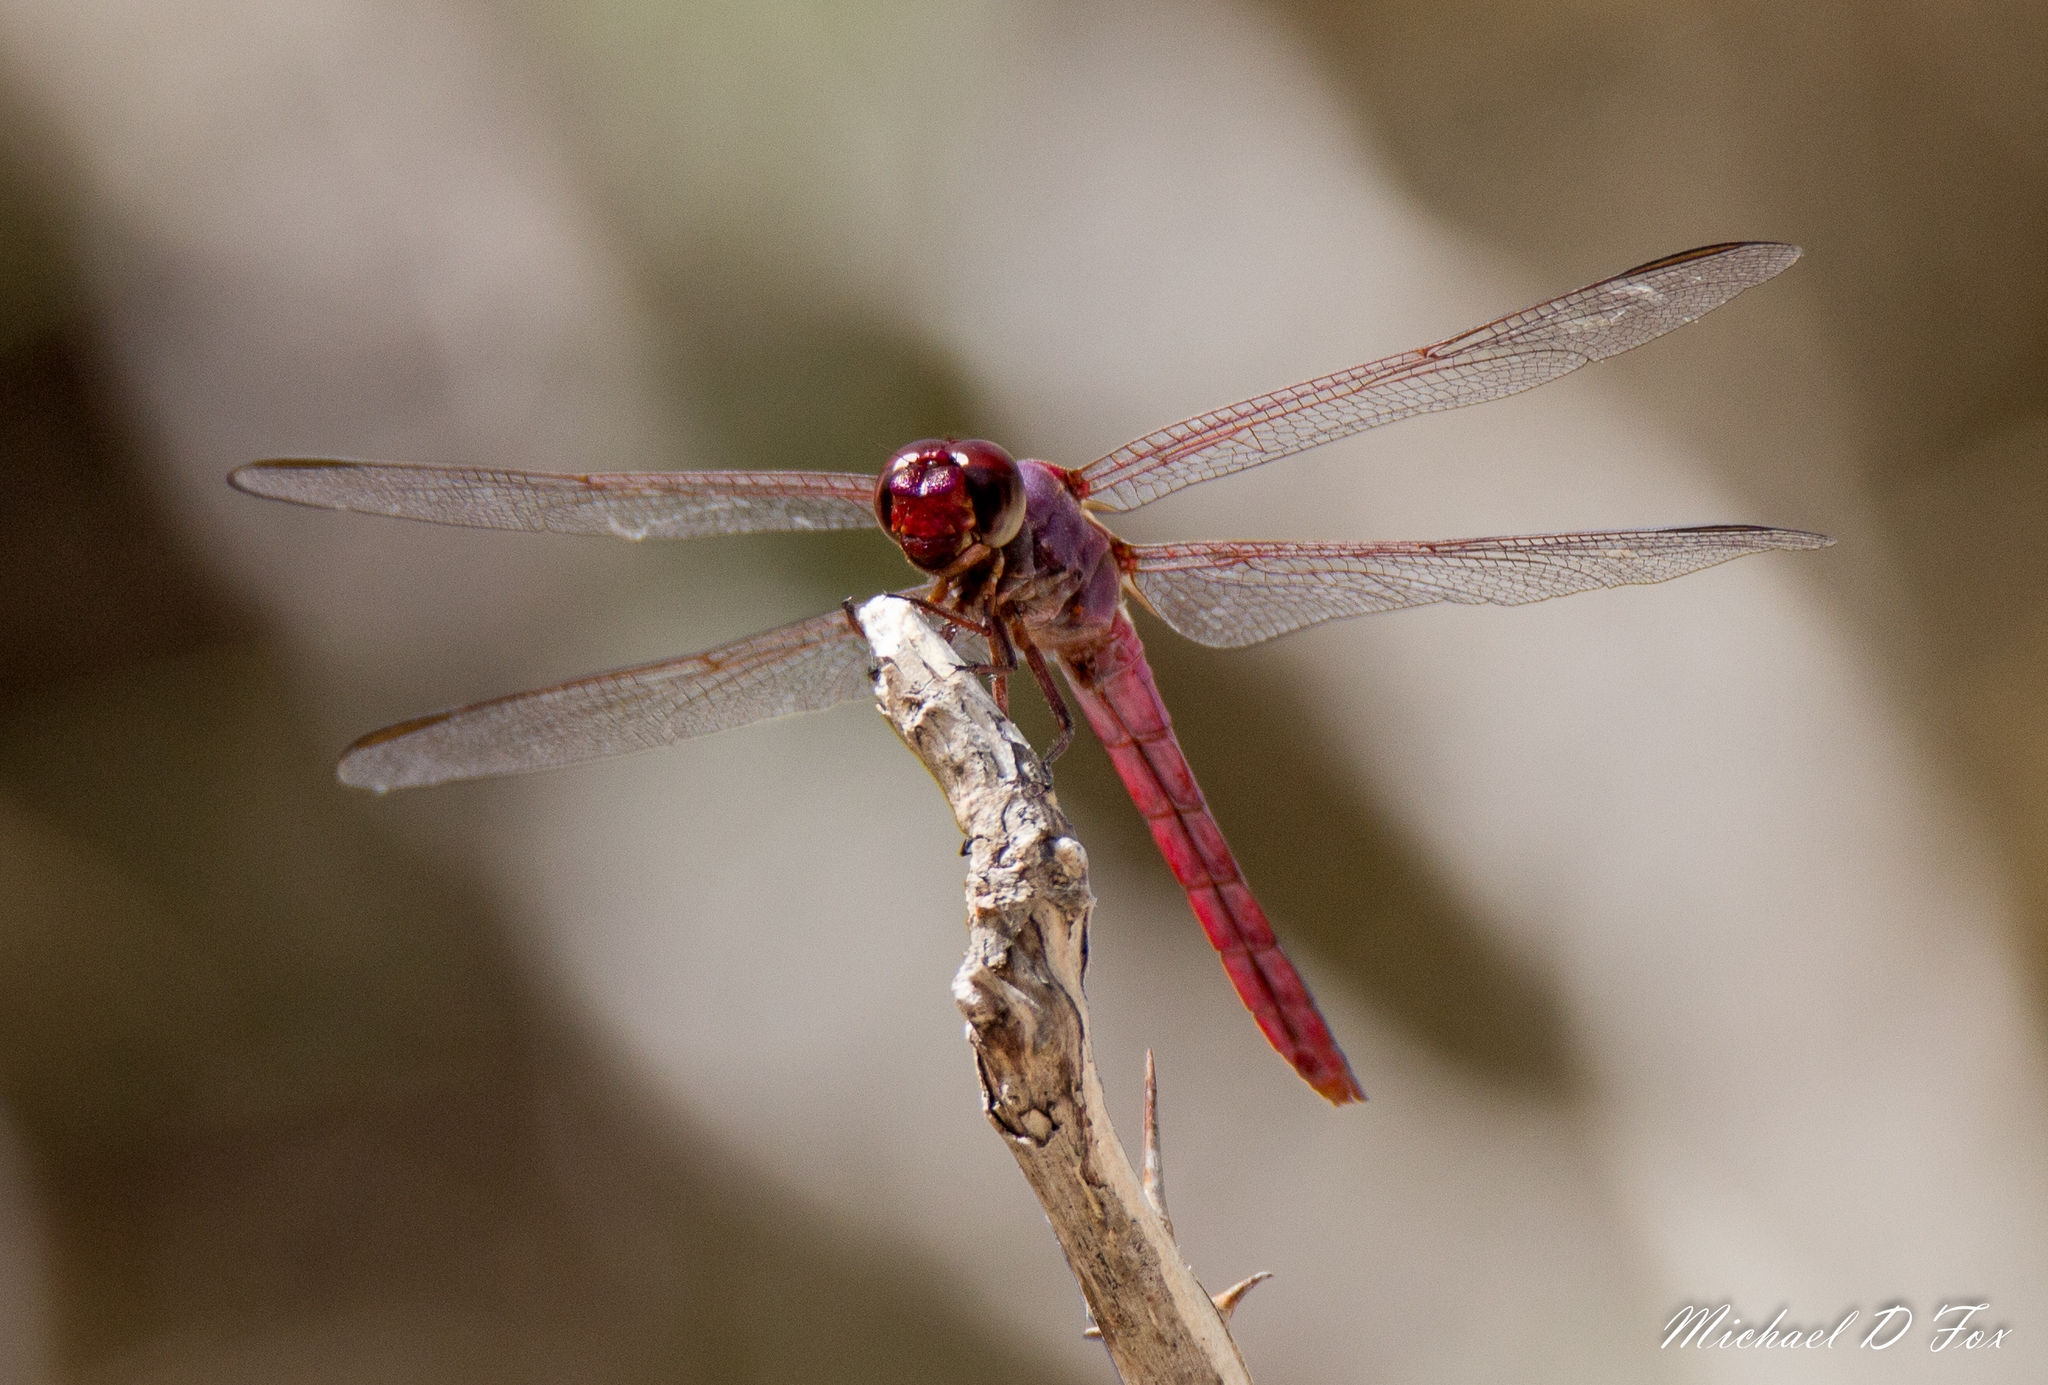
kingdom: Animalia
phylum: Arthropoda
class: Insecta
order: Odonata
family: Libellulidae
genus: Orthemis
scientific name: Orthemis ferruginea
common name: Roseate skimmer
